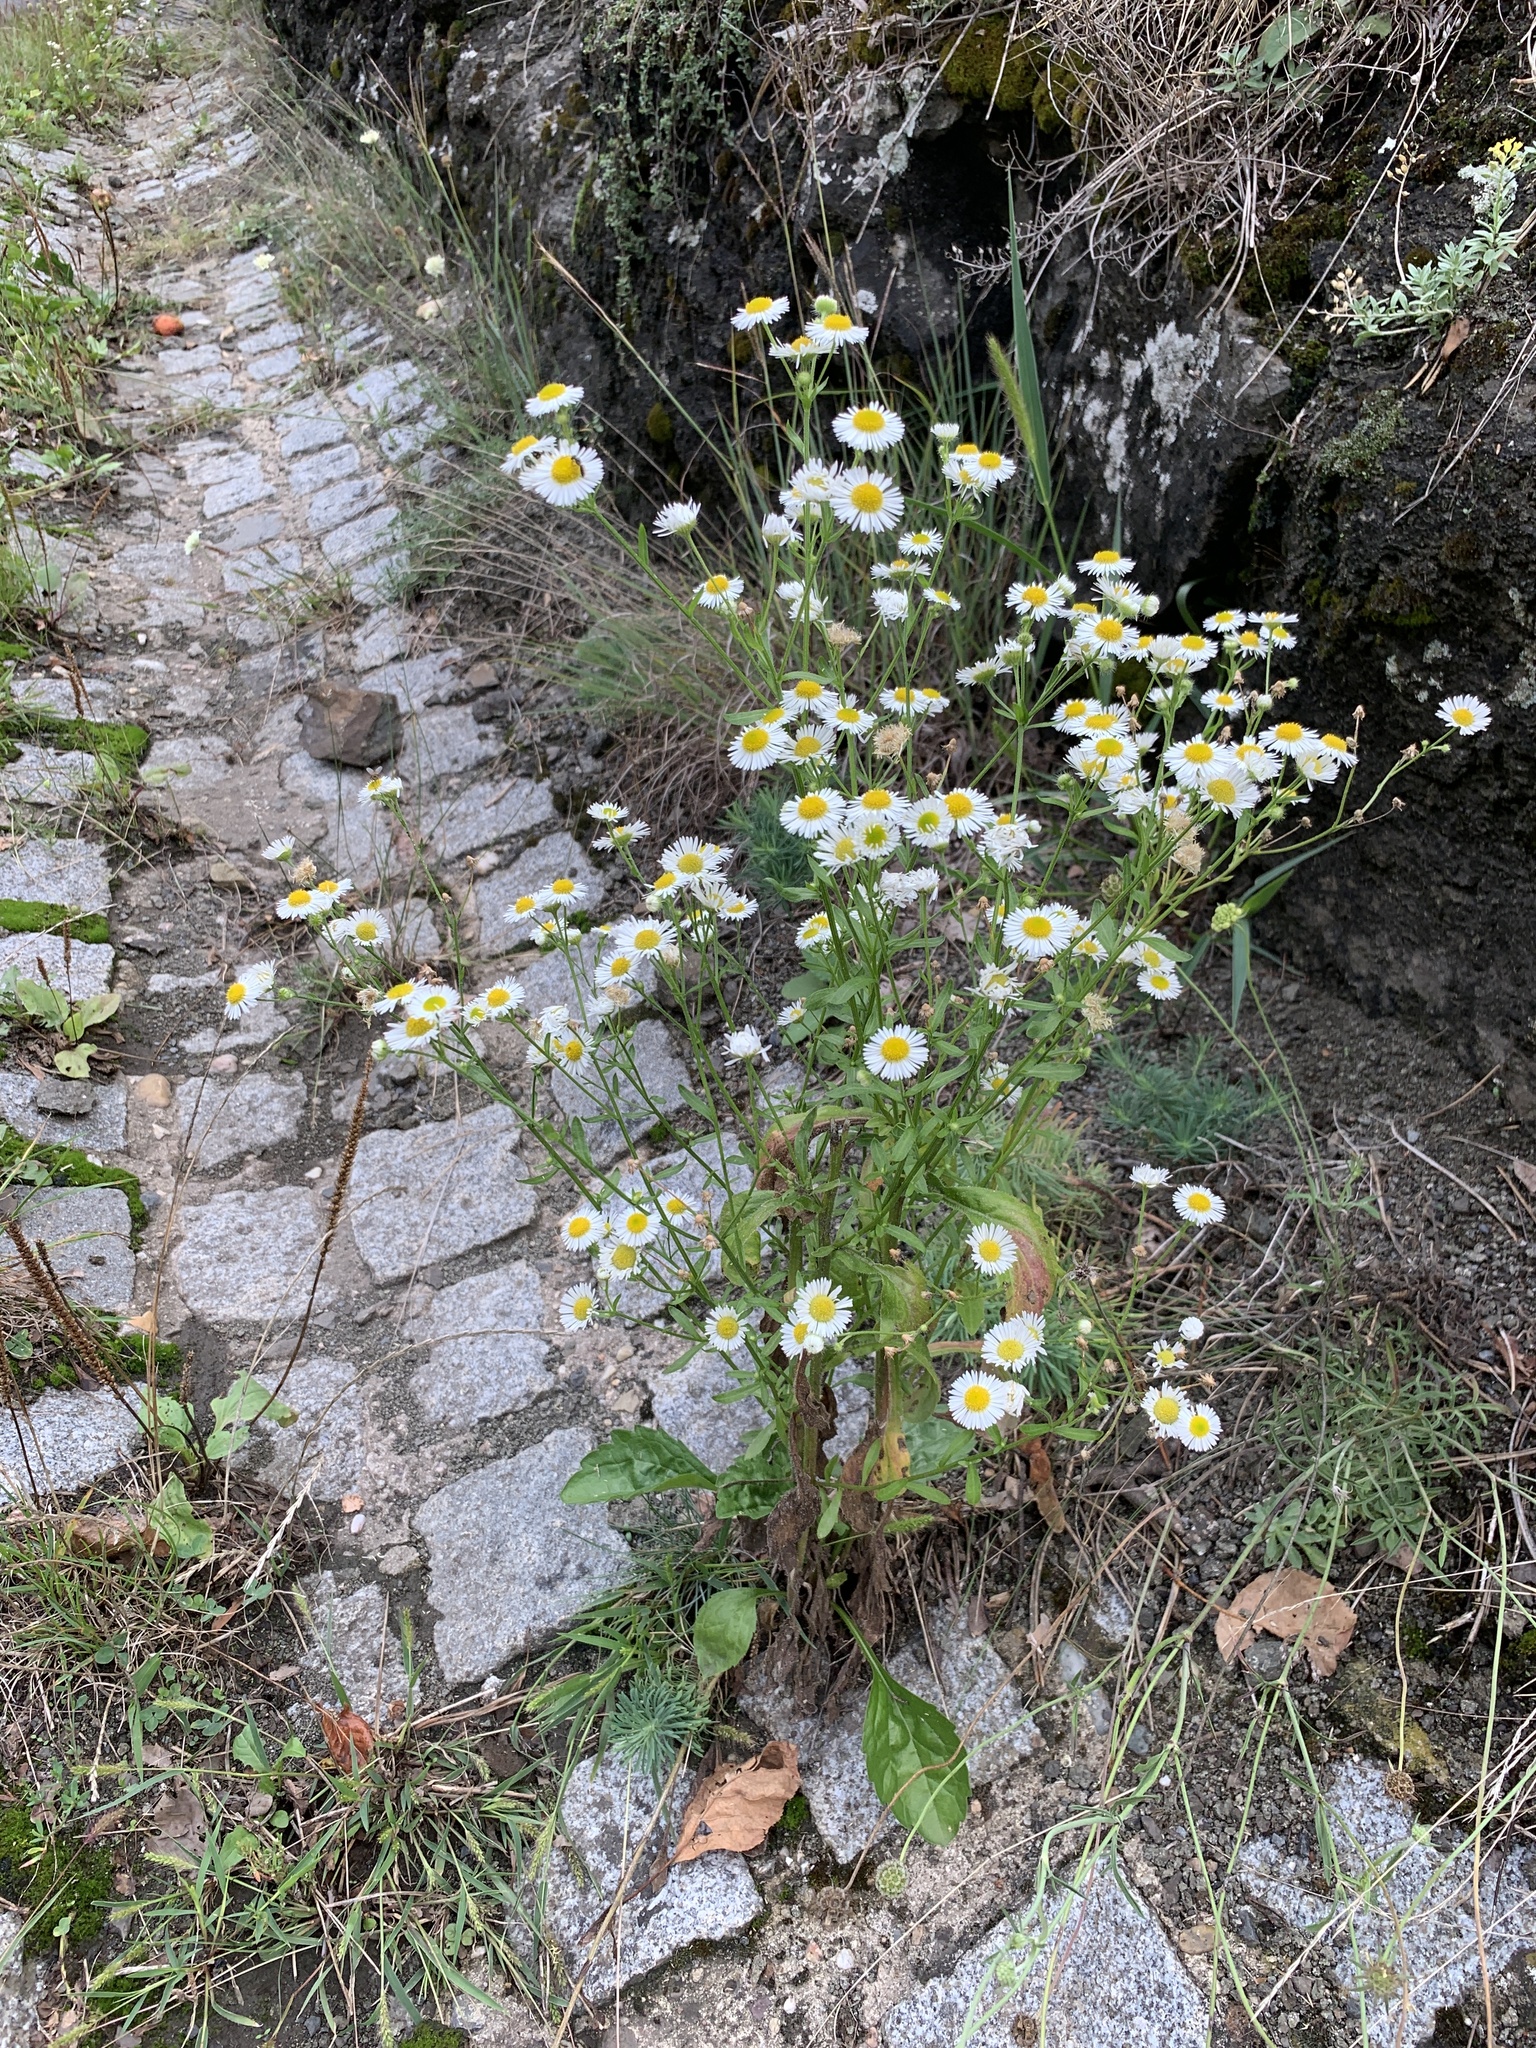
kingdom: Plantae
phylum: Tracheophyta
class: Magnoliopsida
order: Asterales
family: Asteraceae
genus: Erigeron
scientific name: Erigeron annuus
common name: Tall fleabane
